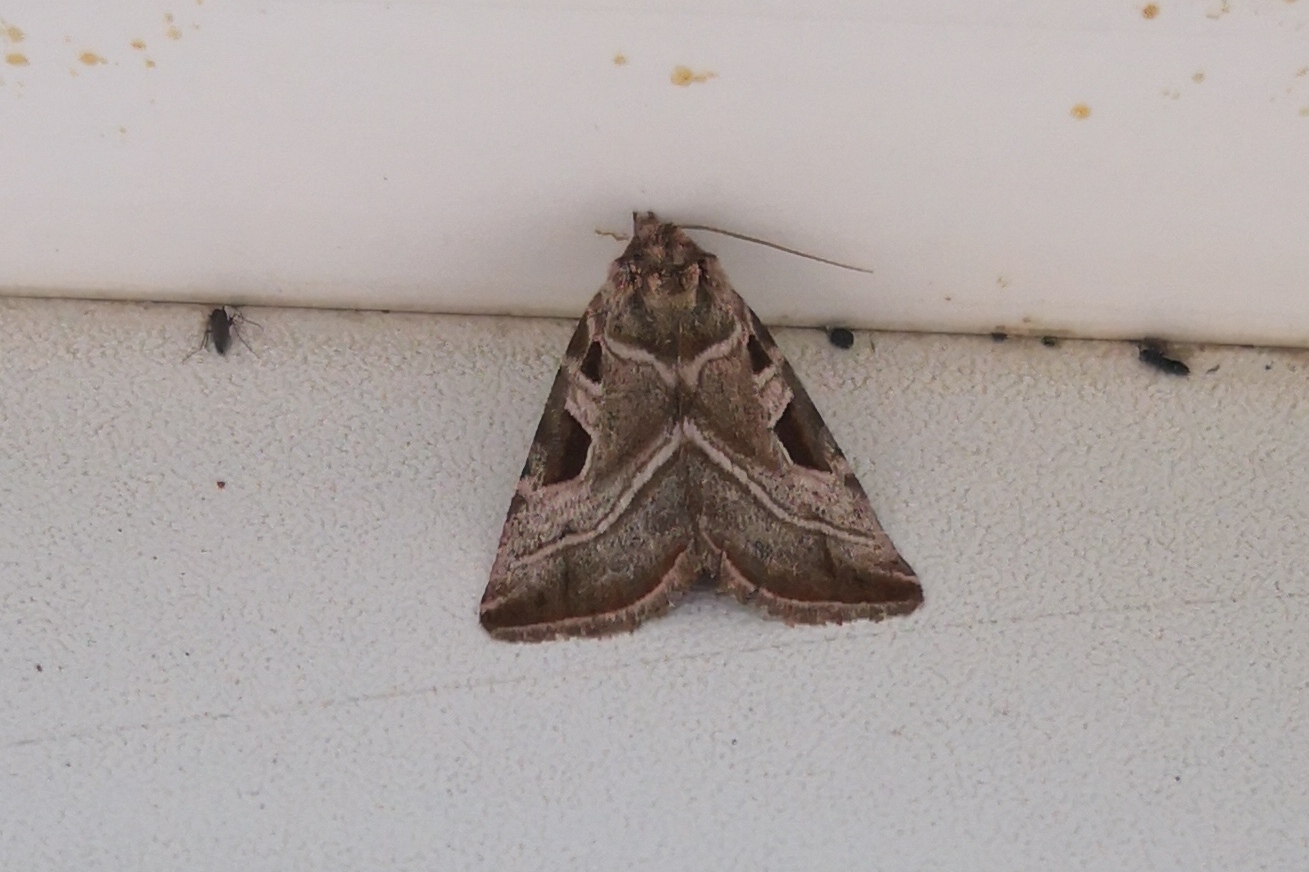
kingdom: Animalia
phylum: Arthropoda
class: Insecta
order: Lepidoptera
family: Noctuidae
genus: Eucarta
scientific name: Eucarta virgo
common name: Silvery gem
